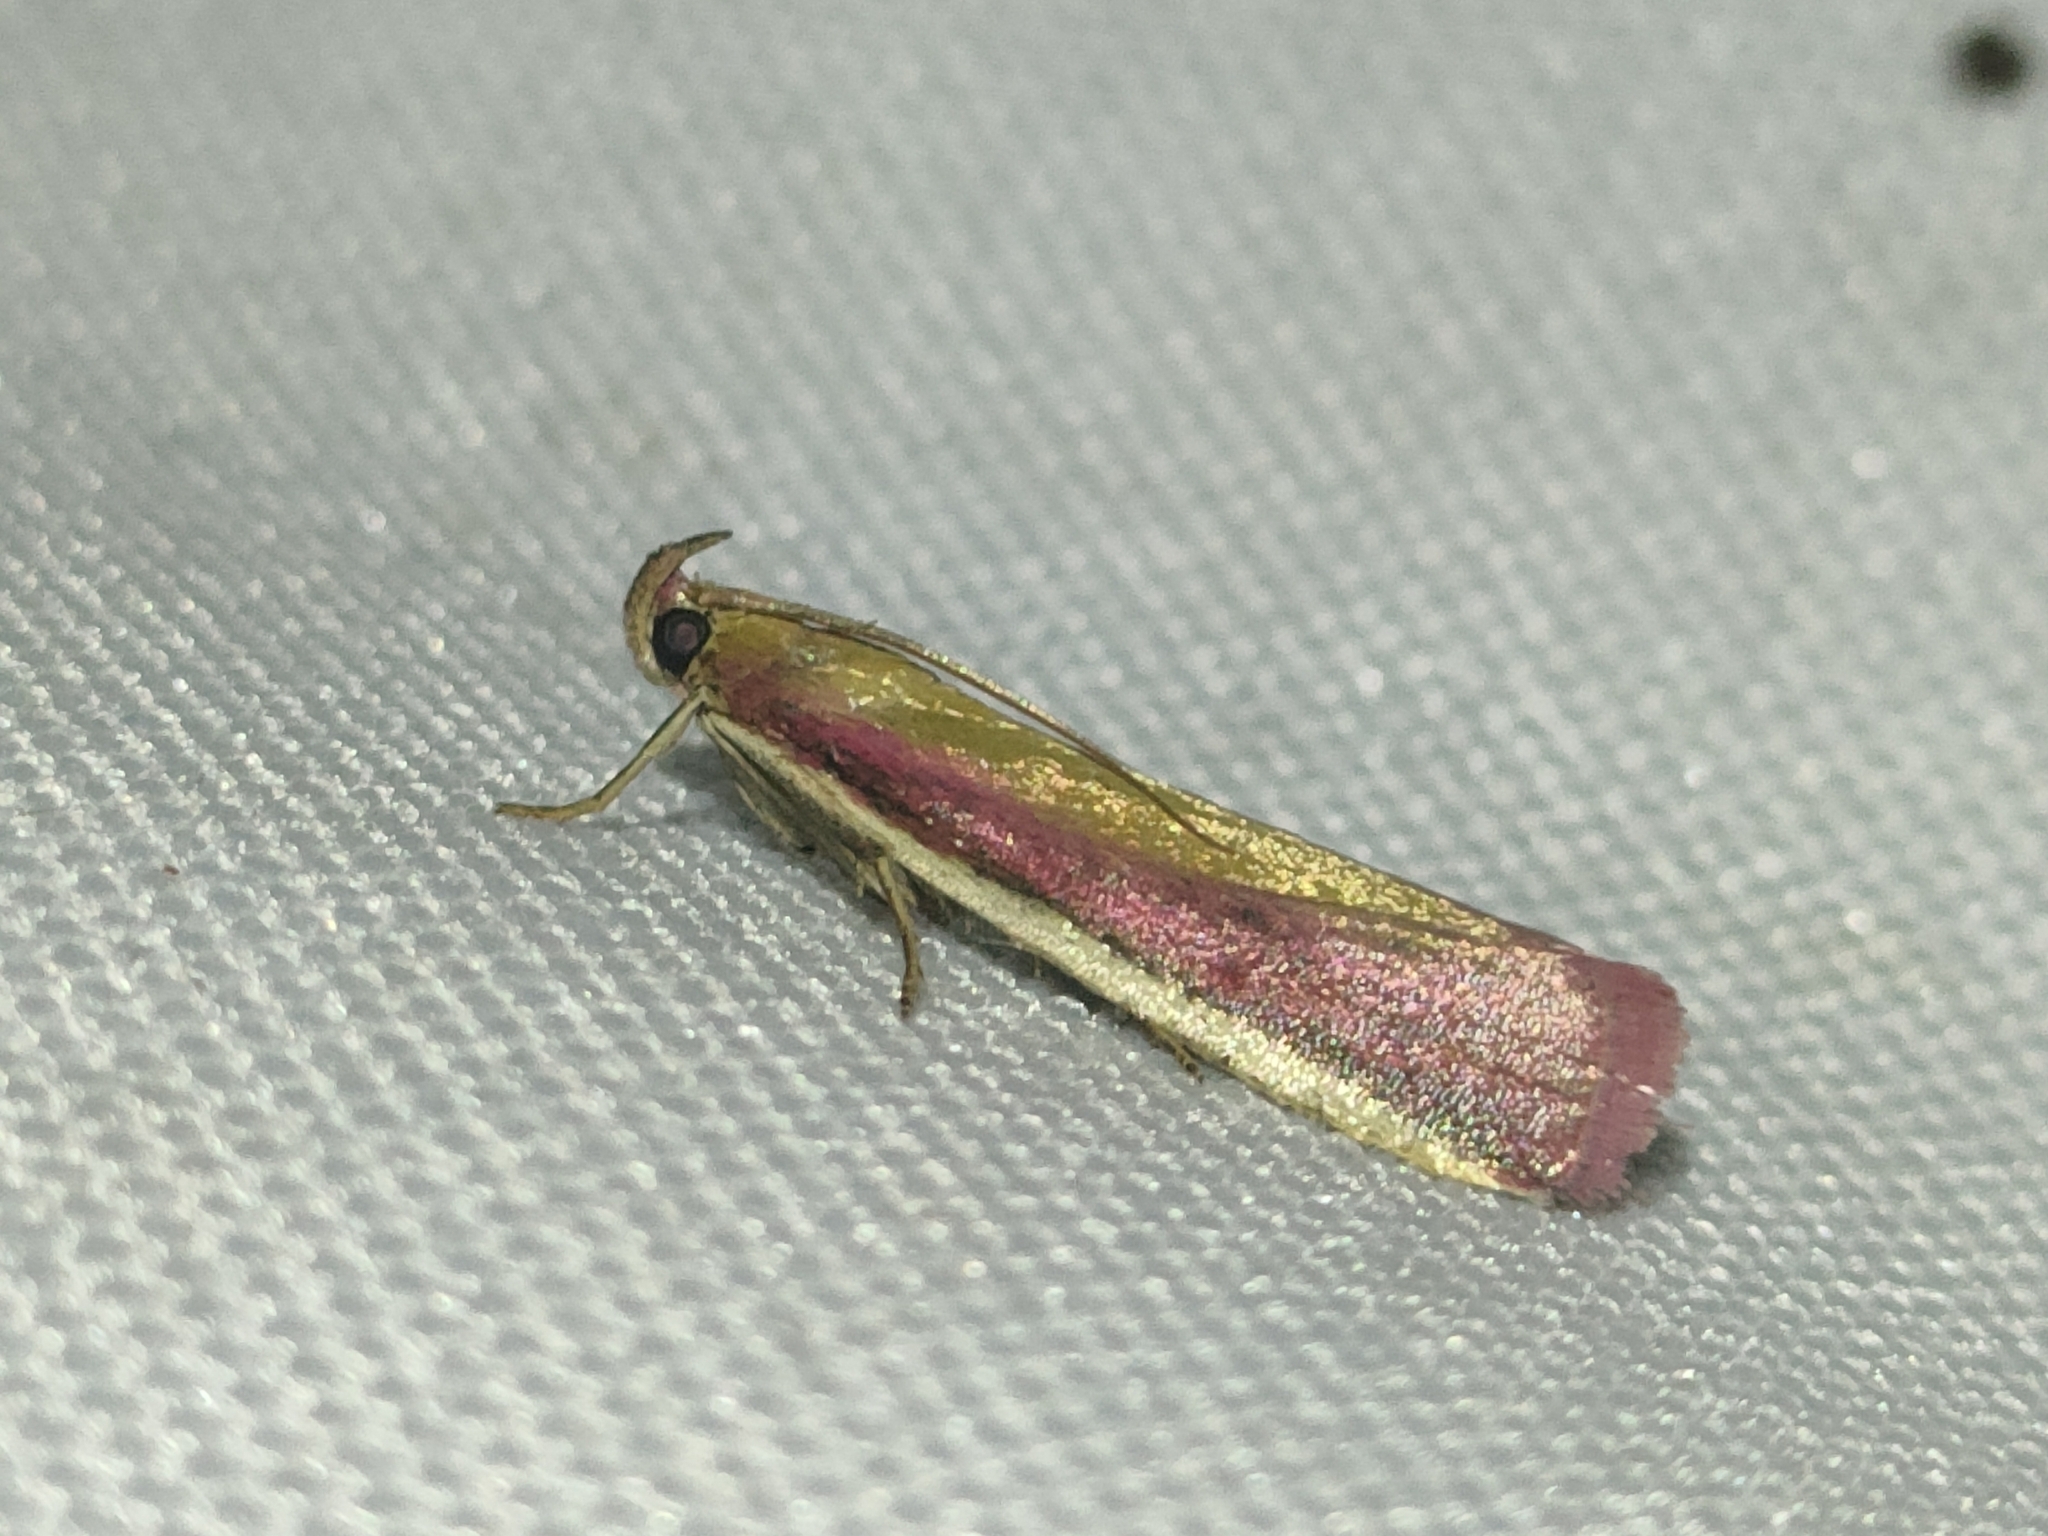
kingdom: Animalia
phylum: Arthropoda
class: Insecta
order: Lepidoptera
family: Pyralidae
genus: Oncocera
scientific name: Oncocera semirubella
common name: Rosy-striped knot-horn
